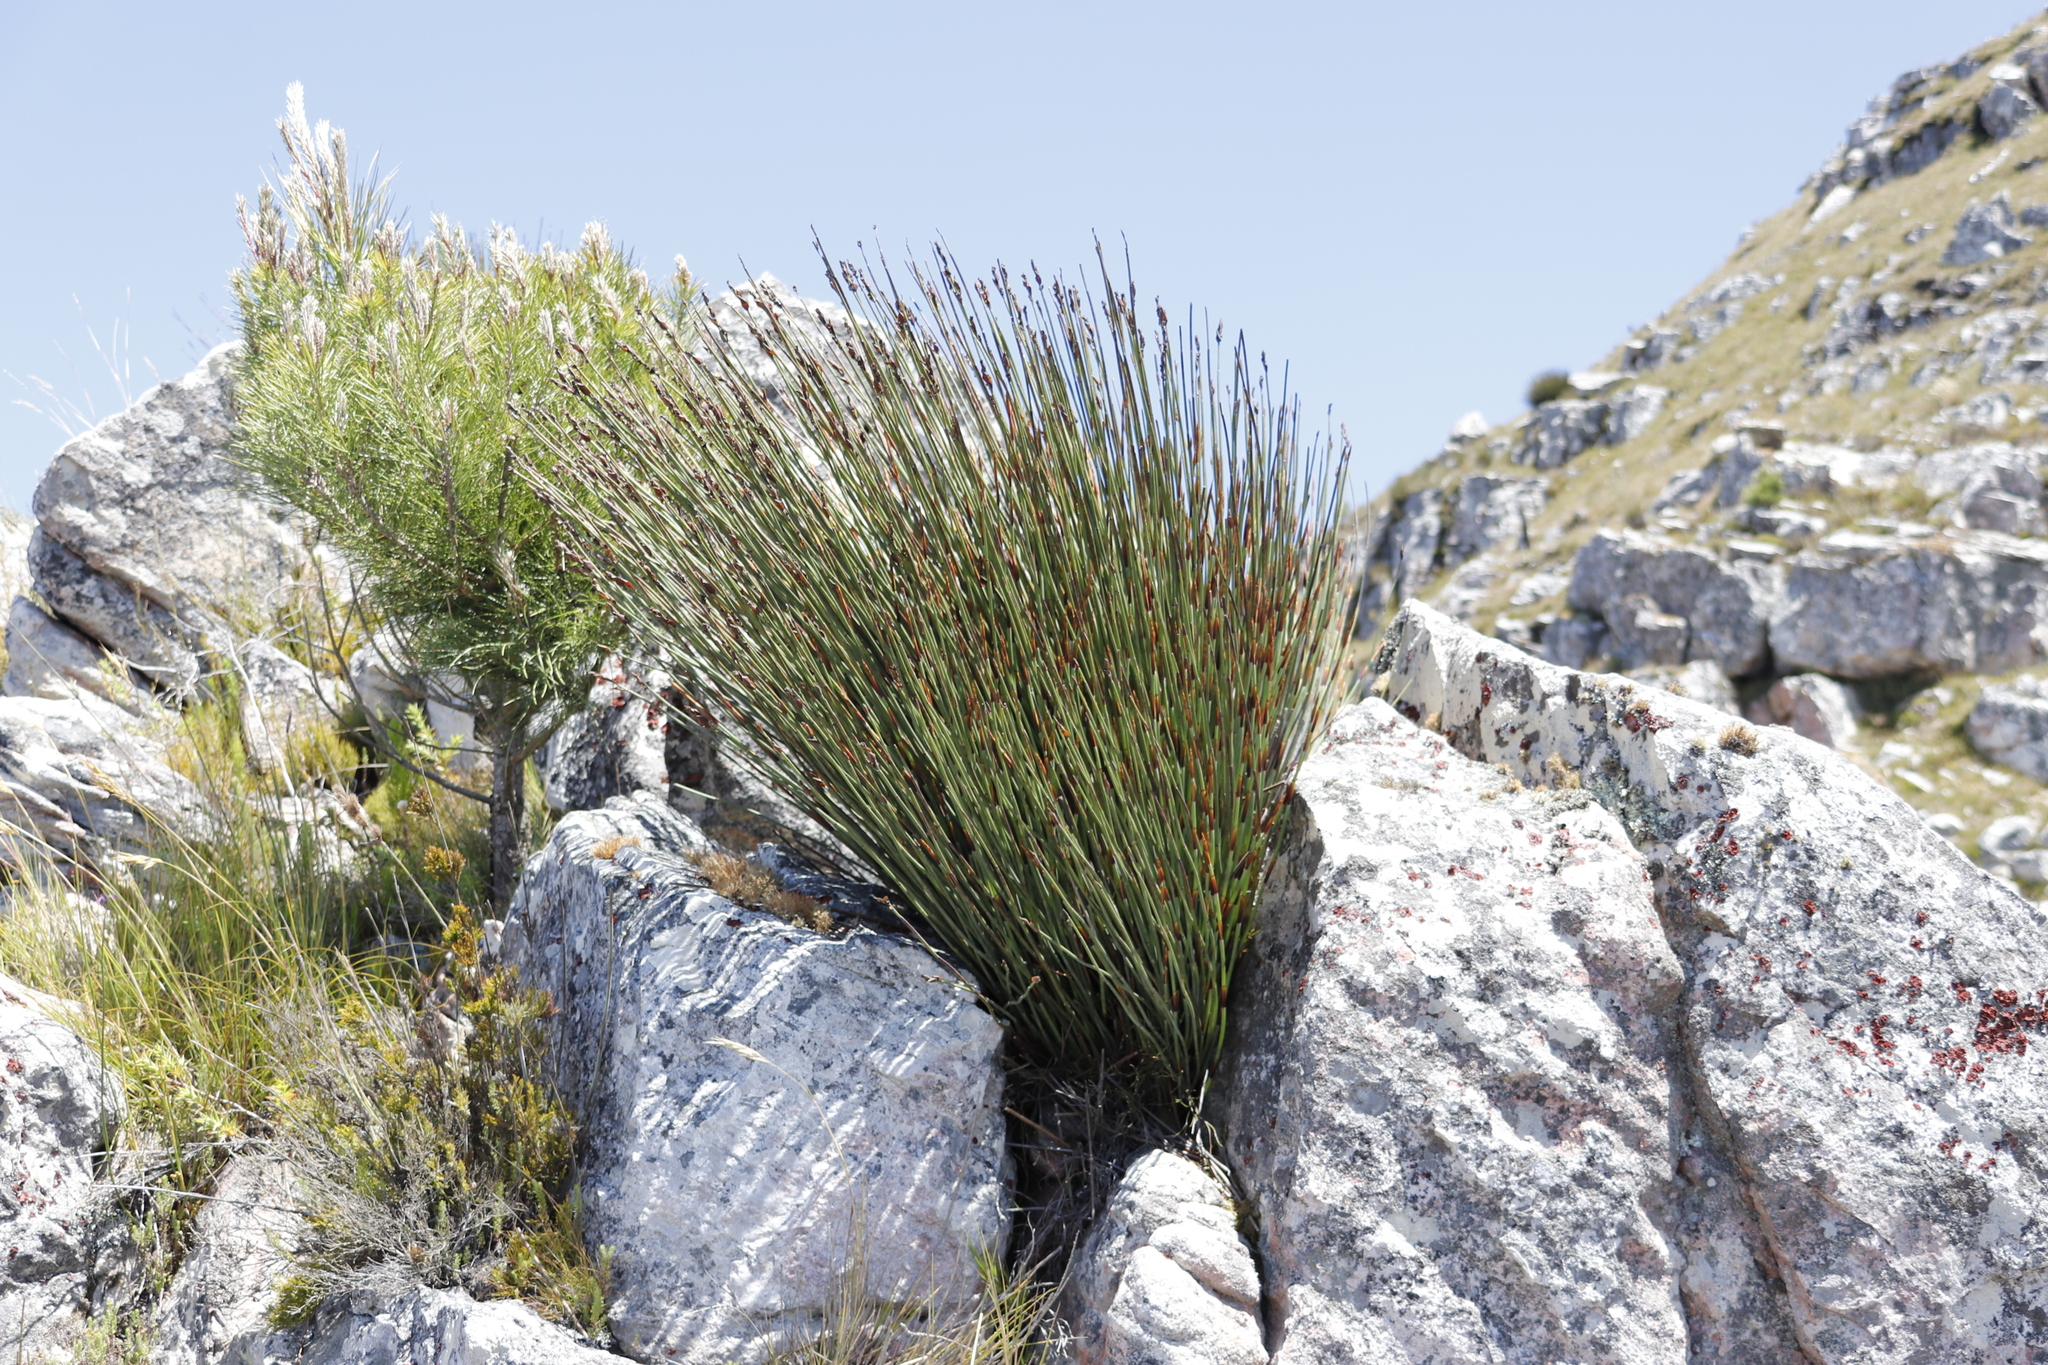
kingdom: Plantae
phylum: Tracheophyta
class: Pinopsida
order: Pinales
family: Pinaceae
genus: Pinus
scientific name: Pinus pinaster
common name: Maritime pine
